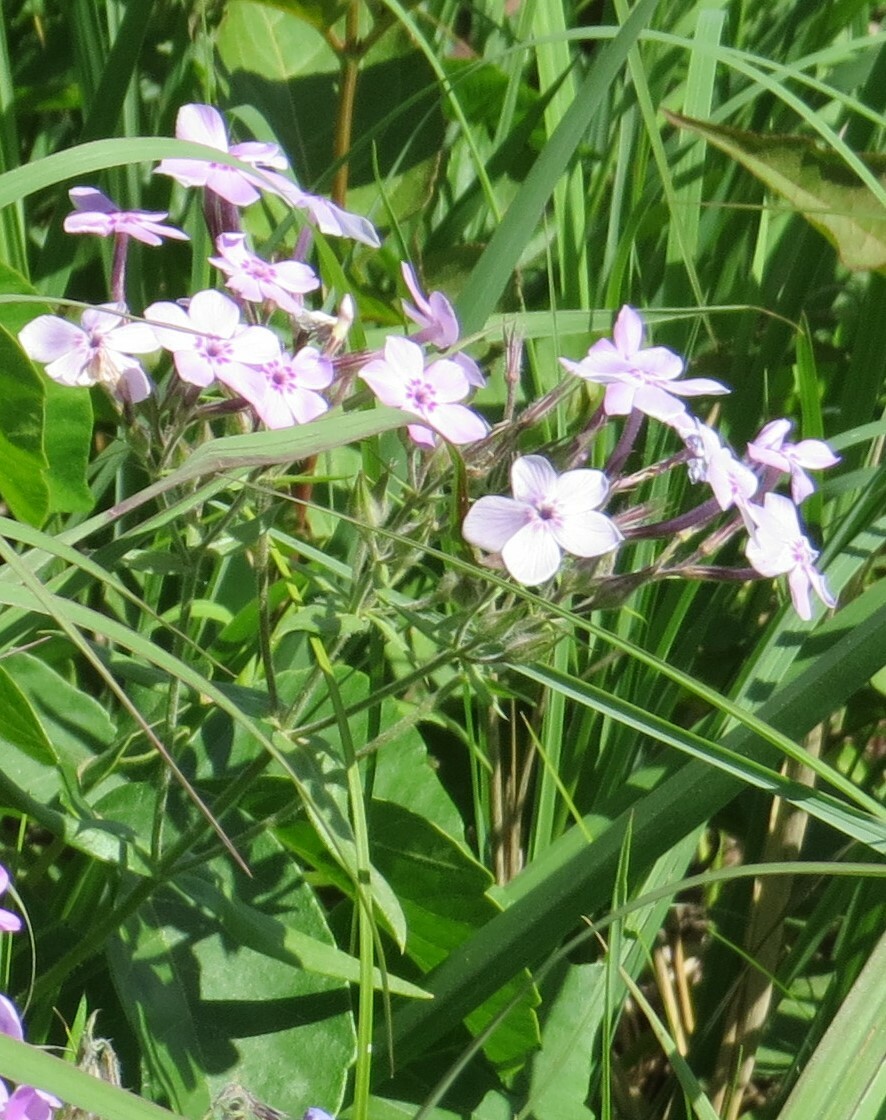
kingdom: Plantae
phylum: Tracheophyta
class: Magnoliopsida
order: Ericales
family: Polemoniaceae
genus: Phlox
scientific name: Phlox pilosa
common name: Prairie phlox
